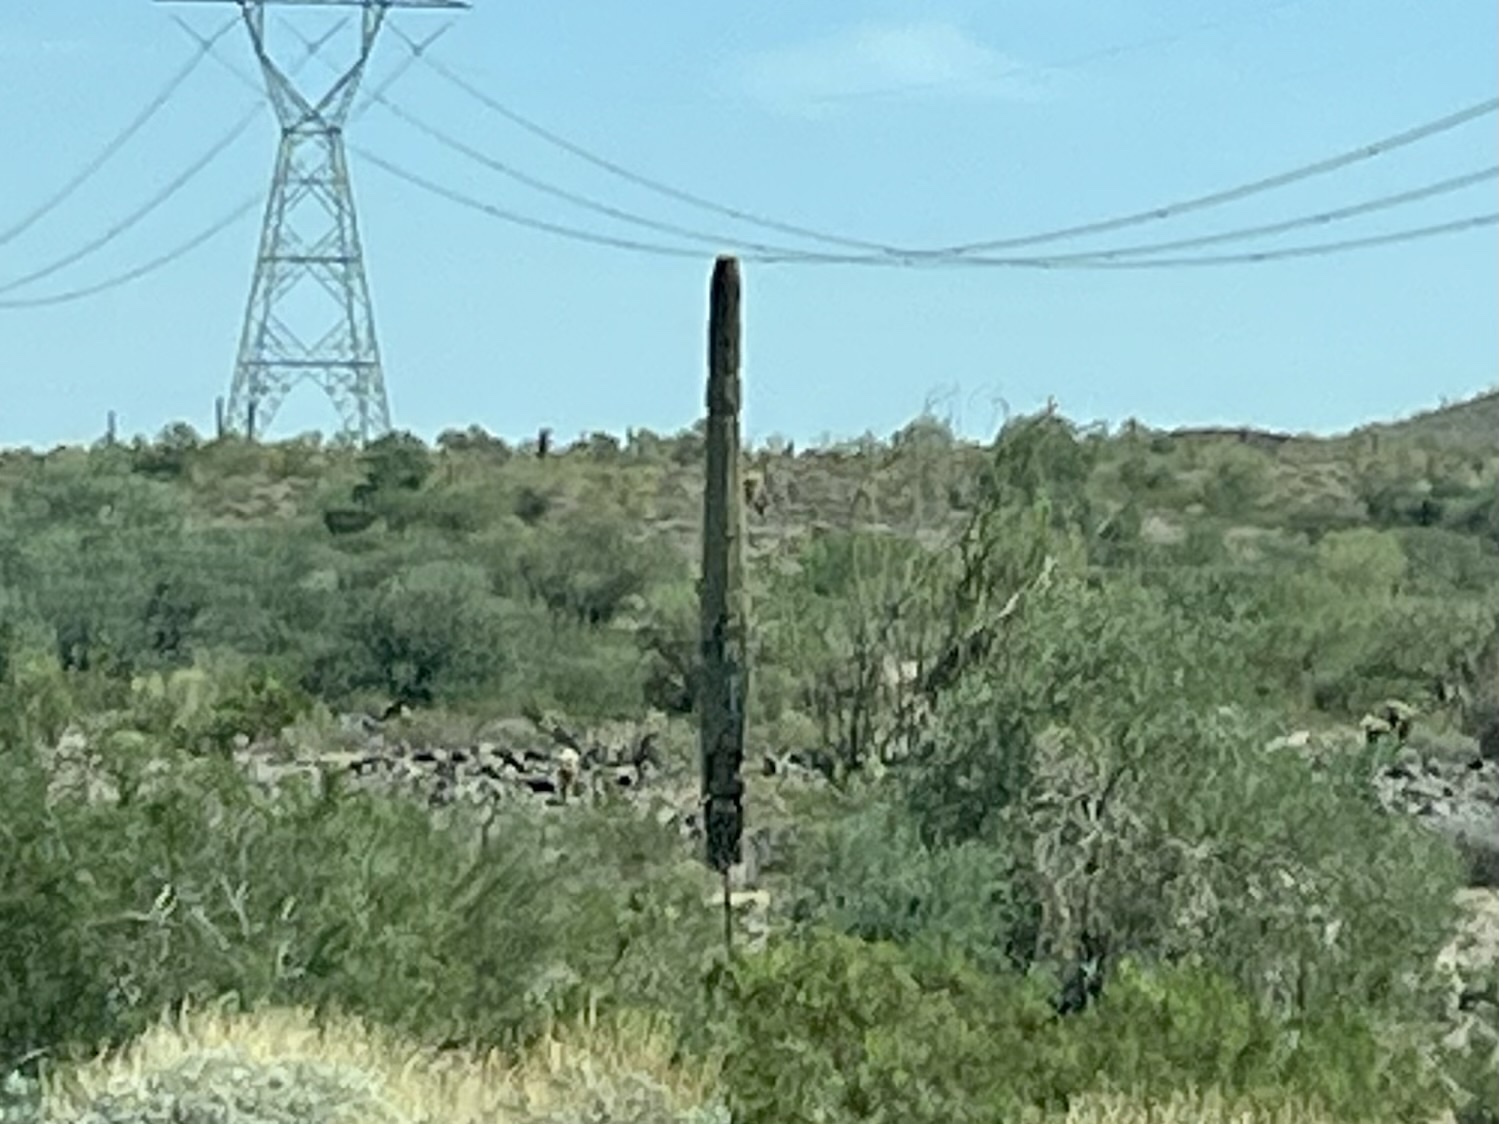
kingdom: Plantae
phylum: Tracheophyta
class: Magnoliopsida
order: Caryophyllales
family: Cactaceae
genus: Carnegiea
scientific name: Carnegiea gigantea
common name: Saguaro
